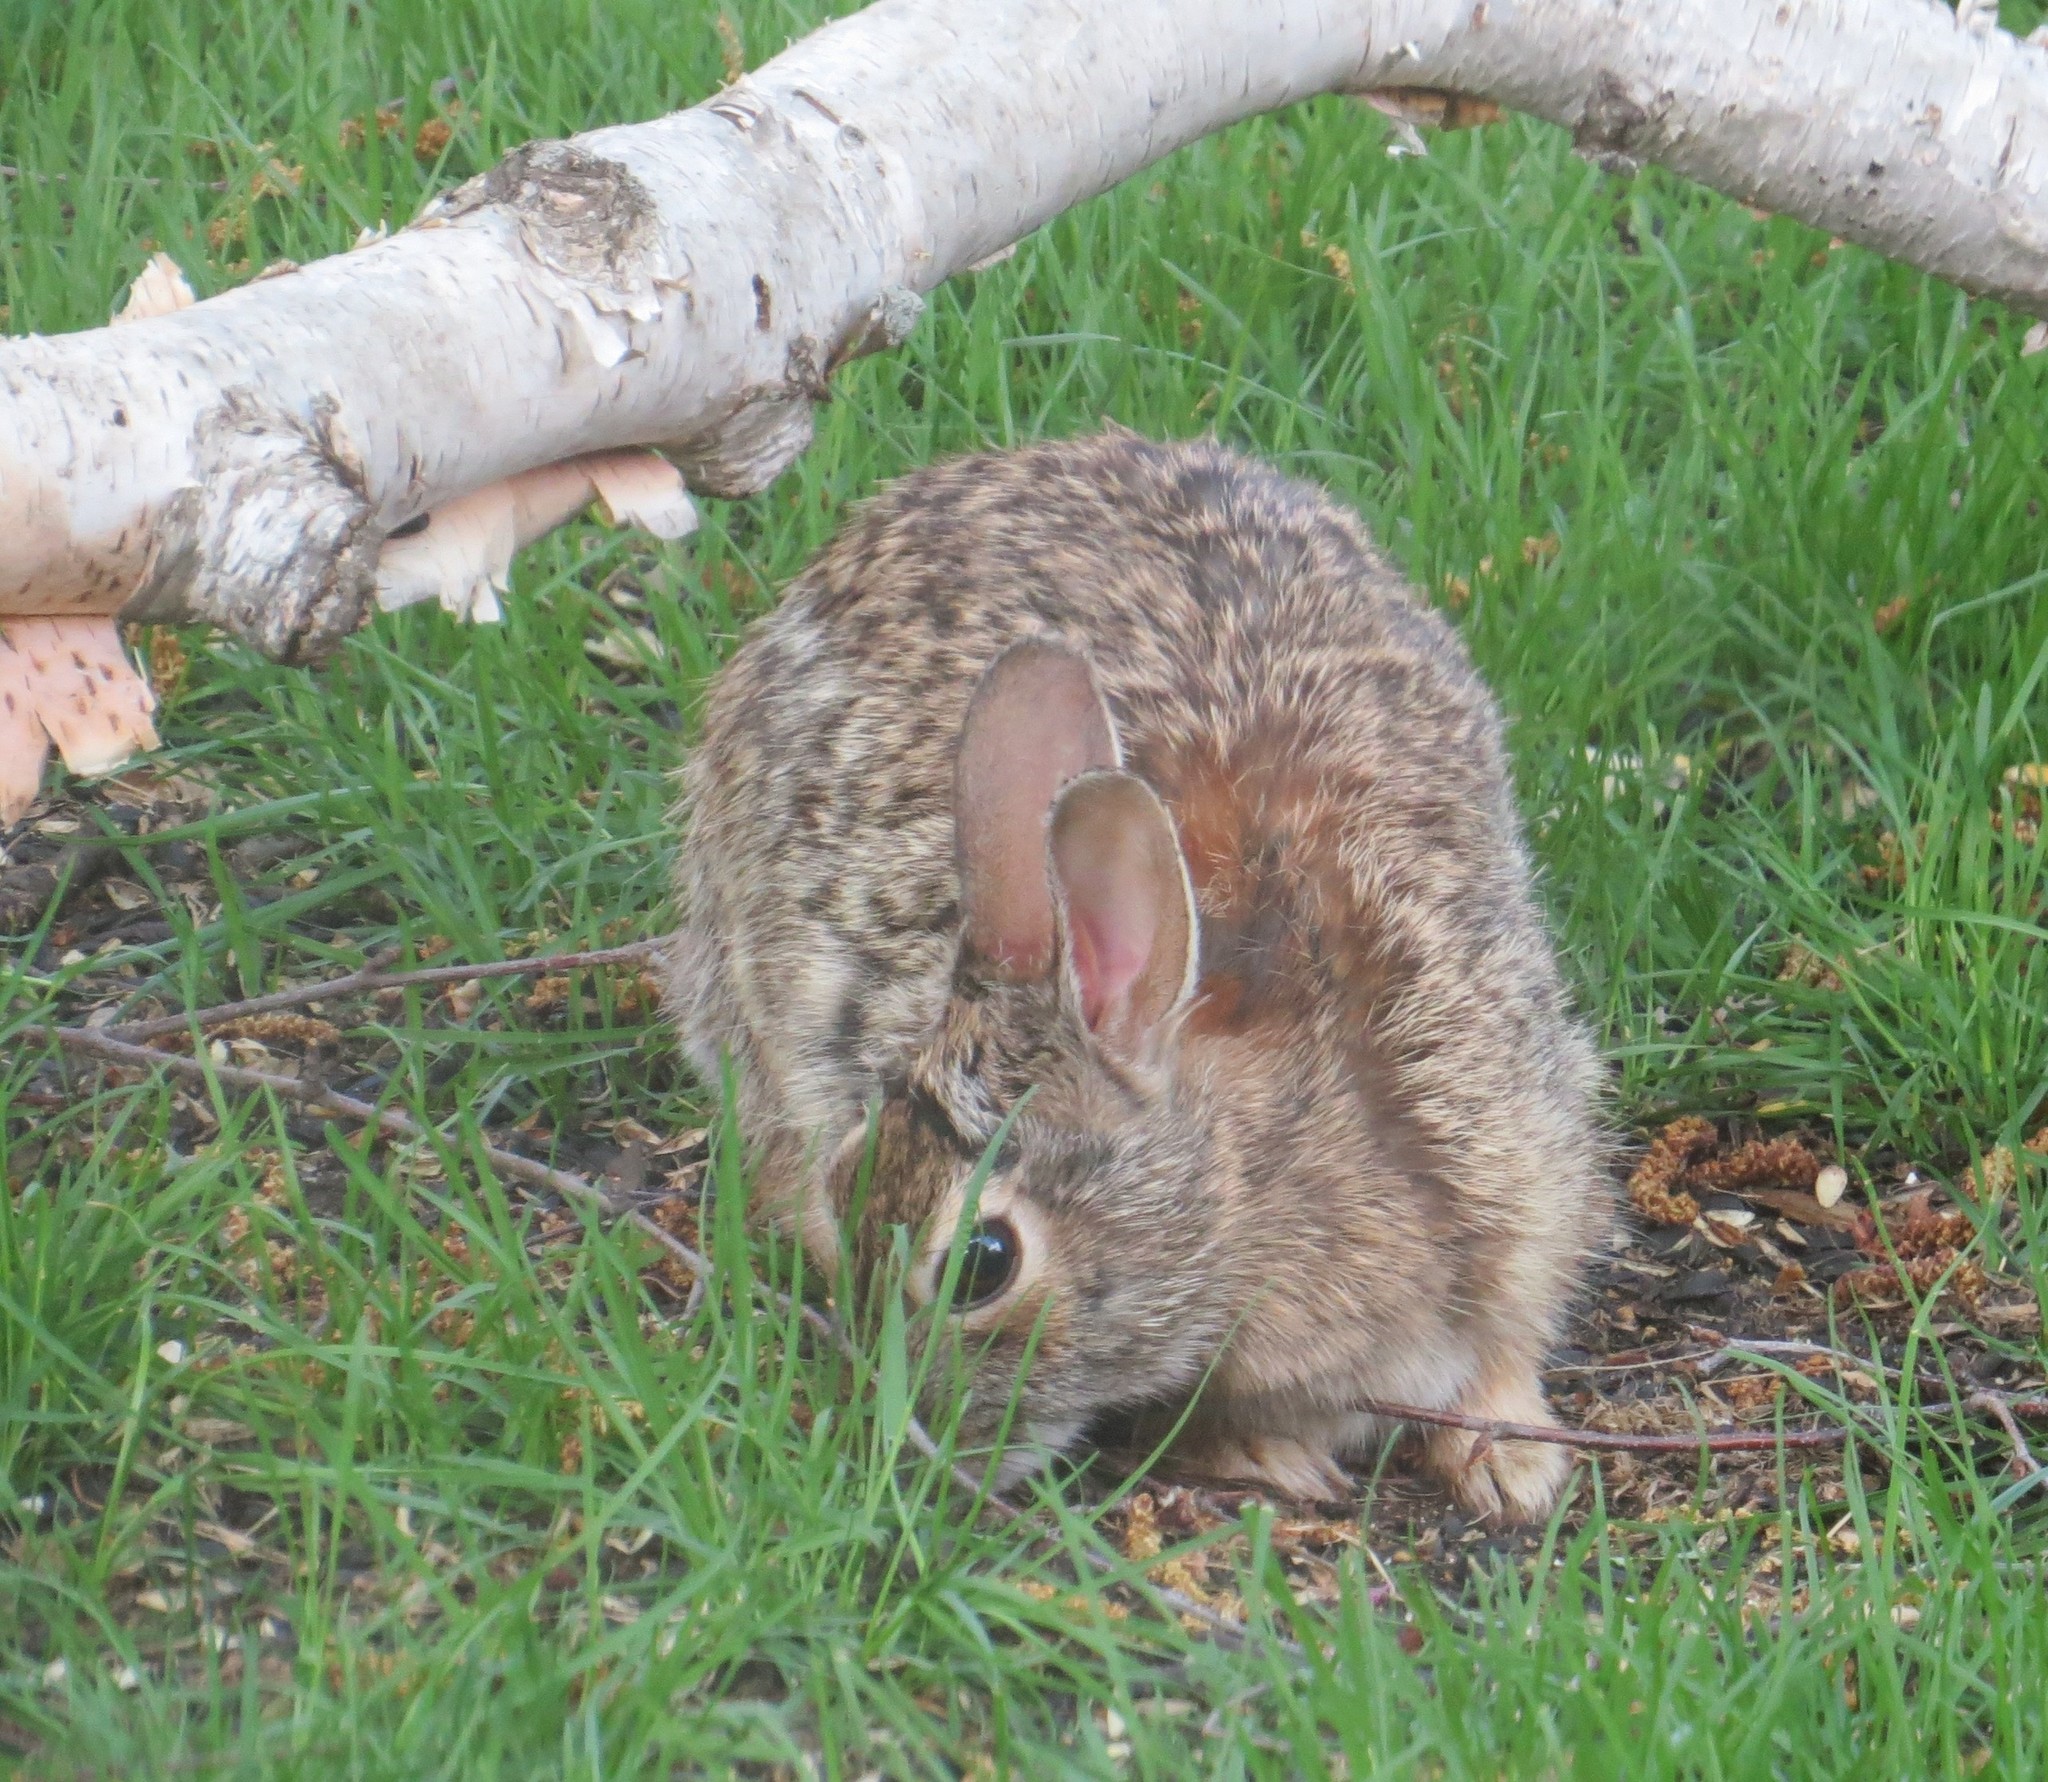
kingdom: Animalia
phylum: Chordata
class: Mammalia
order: Lagomorpha
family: Leporidae
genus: Sylvilagus
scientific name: Sylvilagus floridanus
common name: Eastern cottontail
